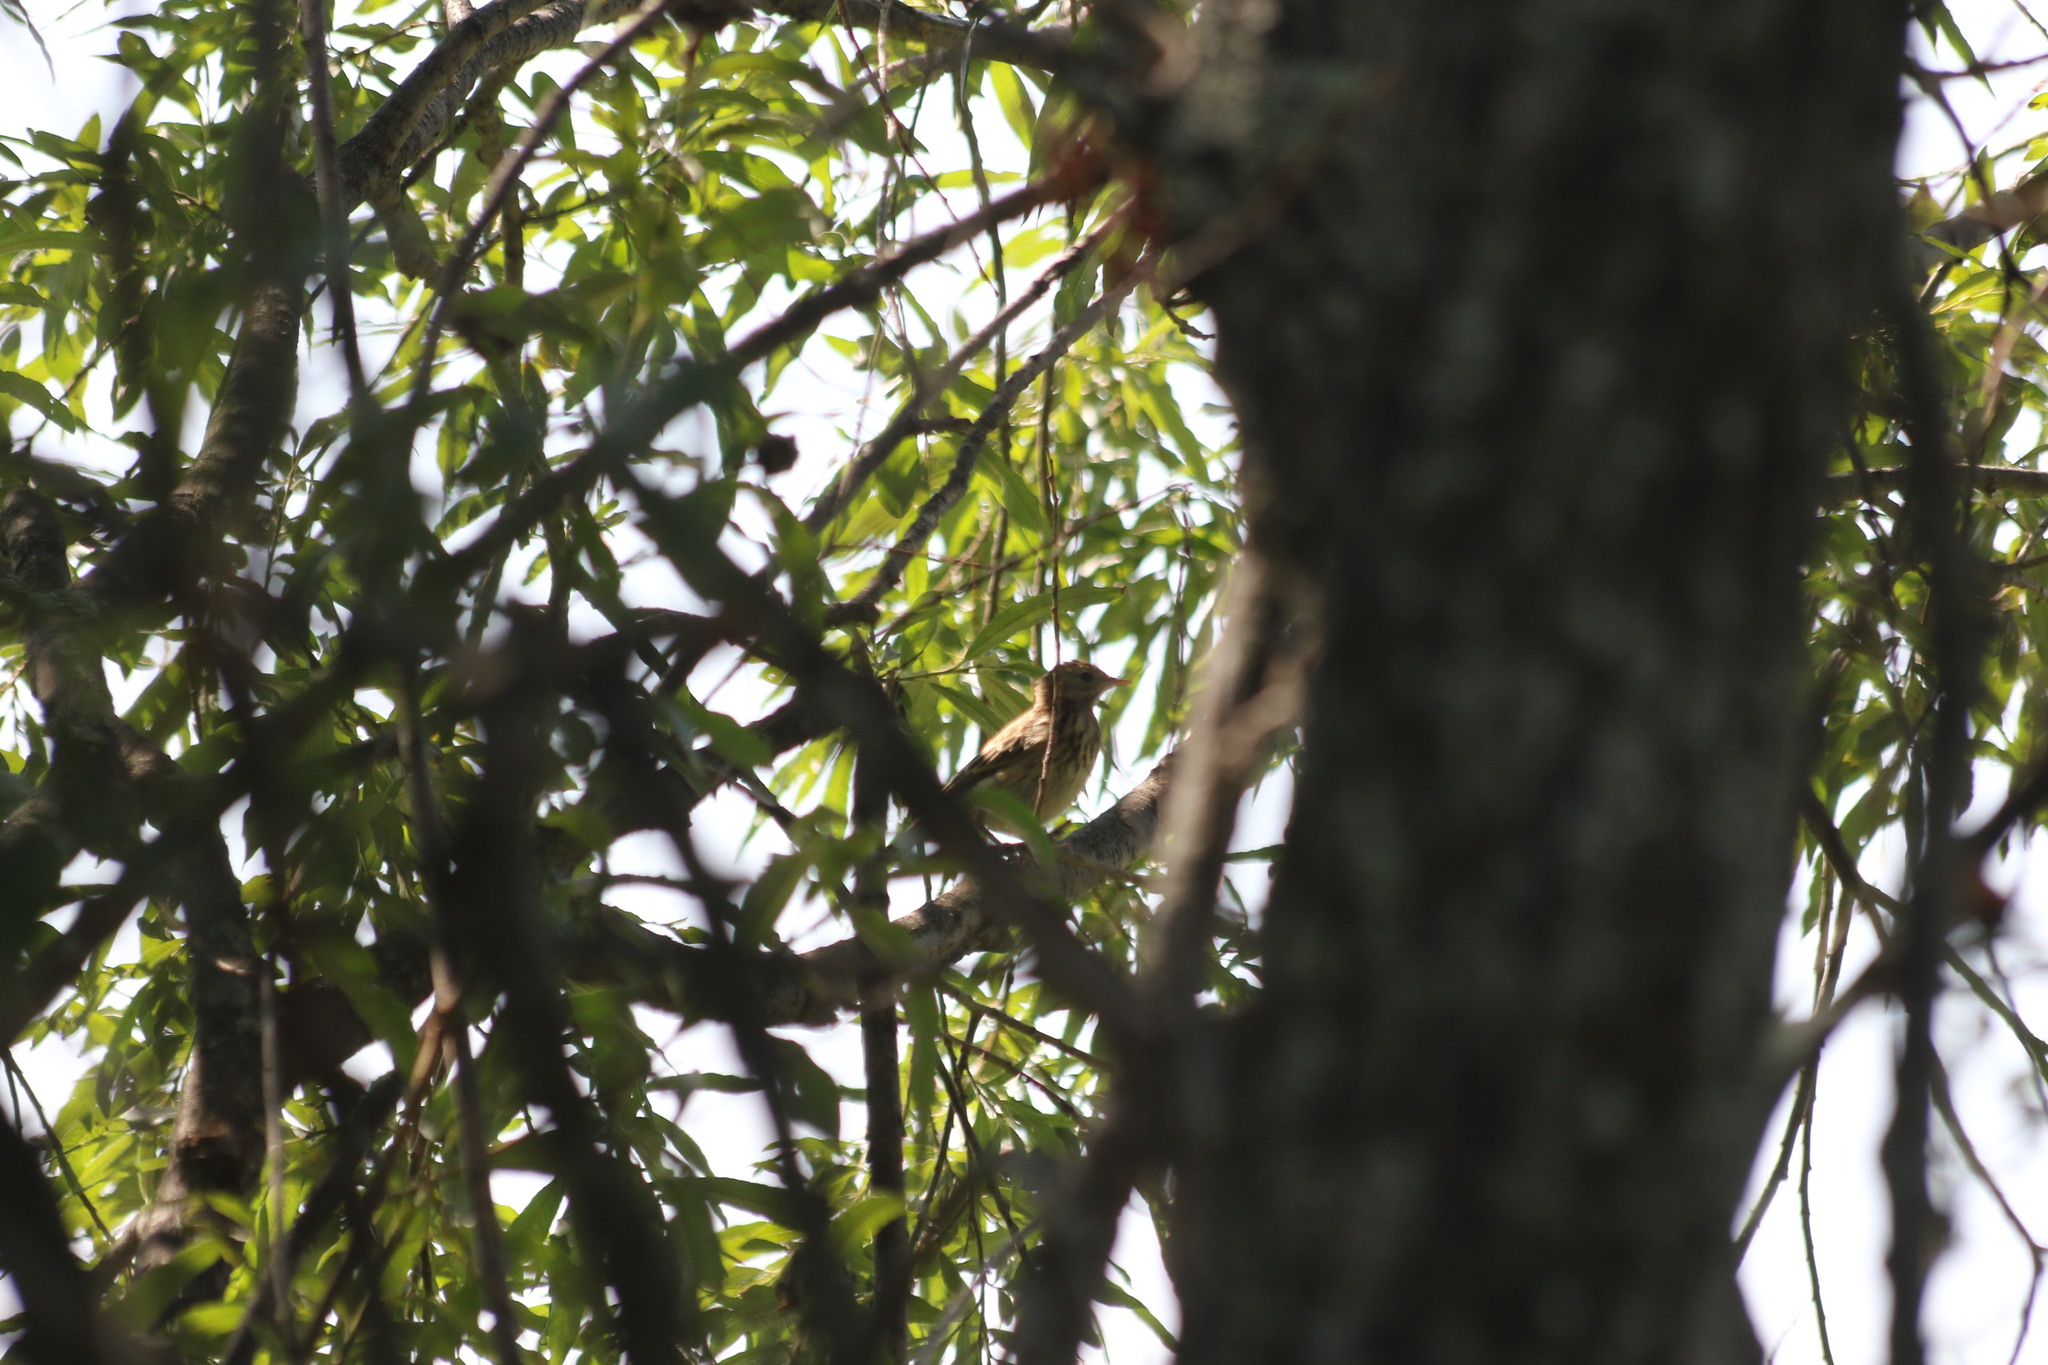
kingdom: Animalia
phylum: Chordata
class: Aves
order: Passeriformes
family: Motacillidae
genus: Anthus
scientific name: Anthus trivialis
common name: Tree pipit
